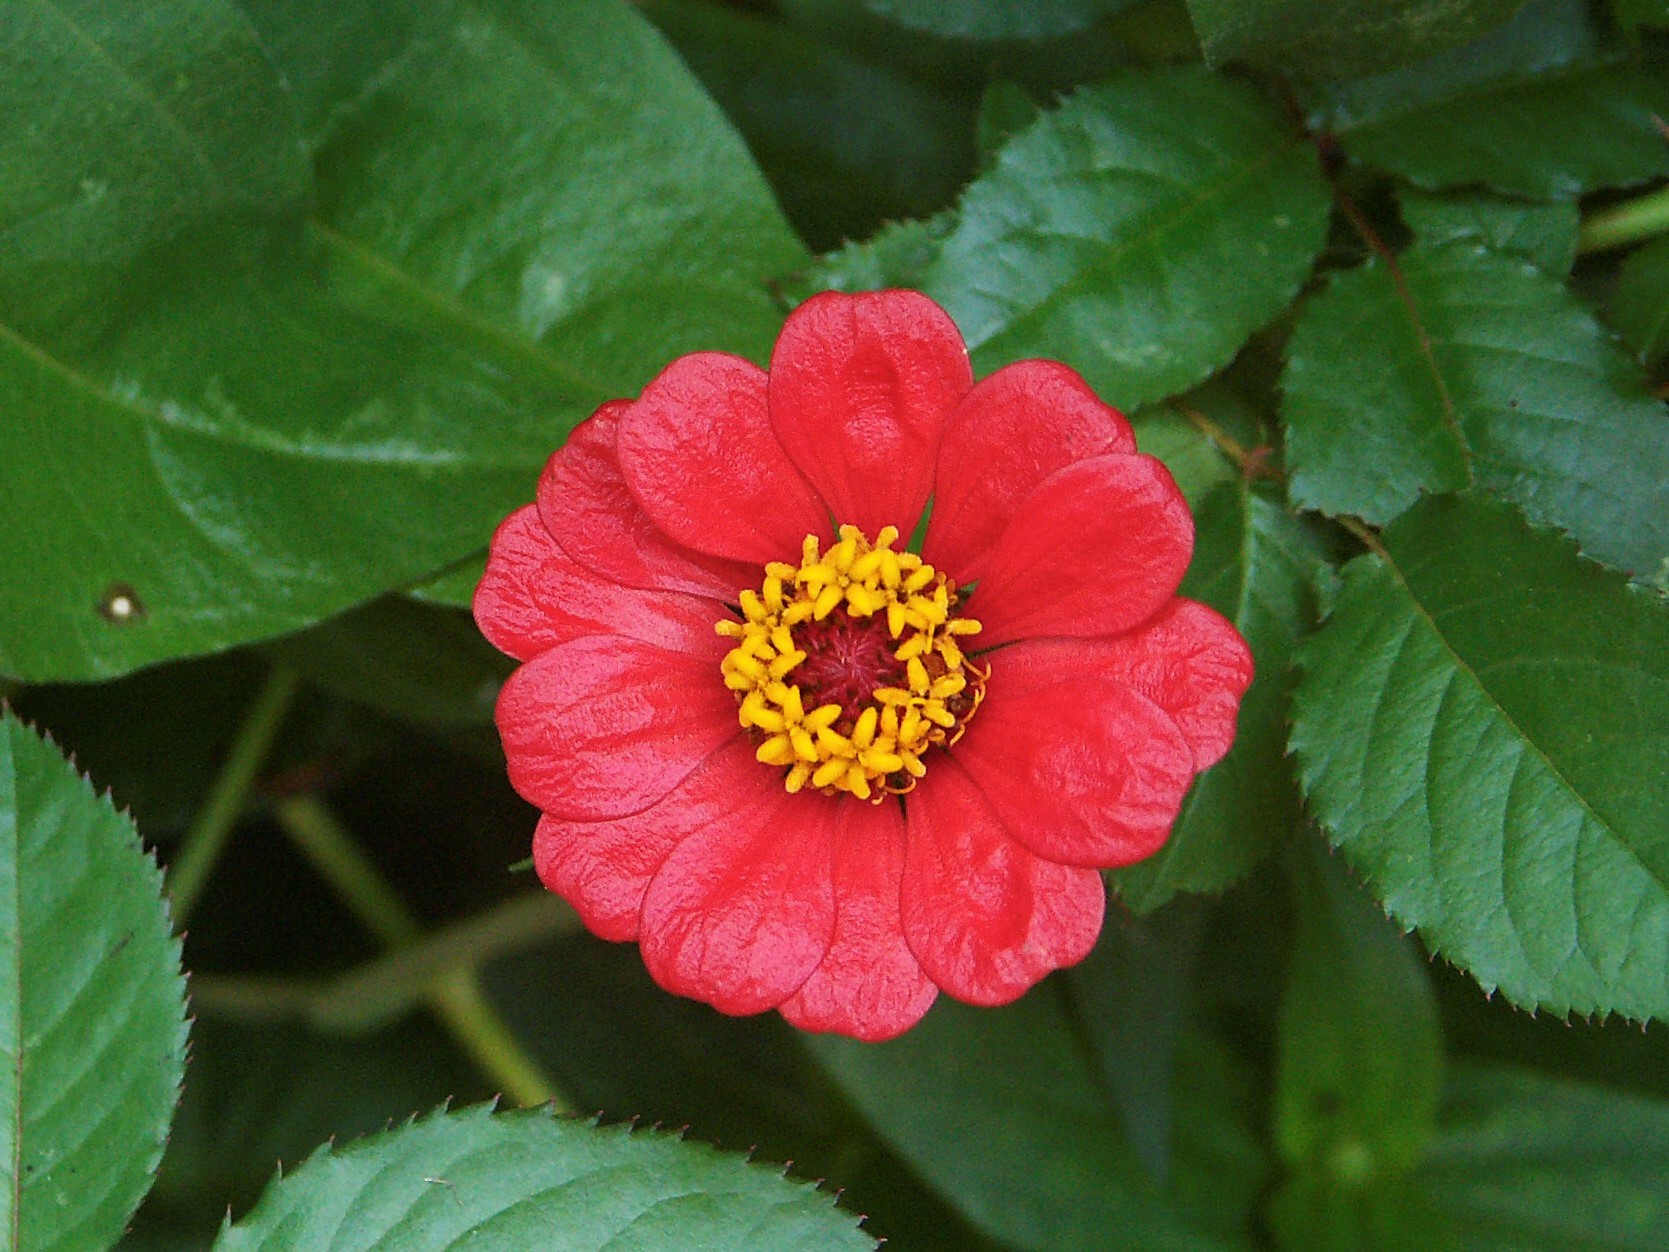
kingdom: Plantae
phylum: Tracheophyta
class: Magnoliopsida
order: Asterales
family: Asteraceae
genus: Zinnia
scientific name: Zinnia elegans
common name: Youth-and-age
